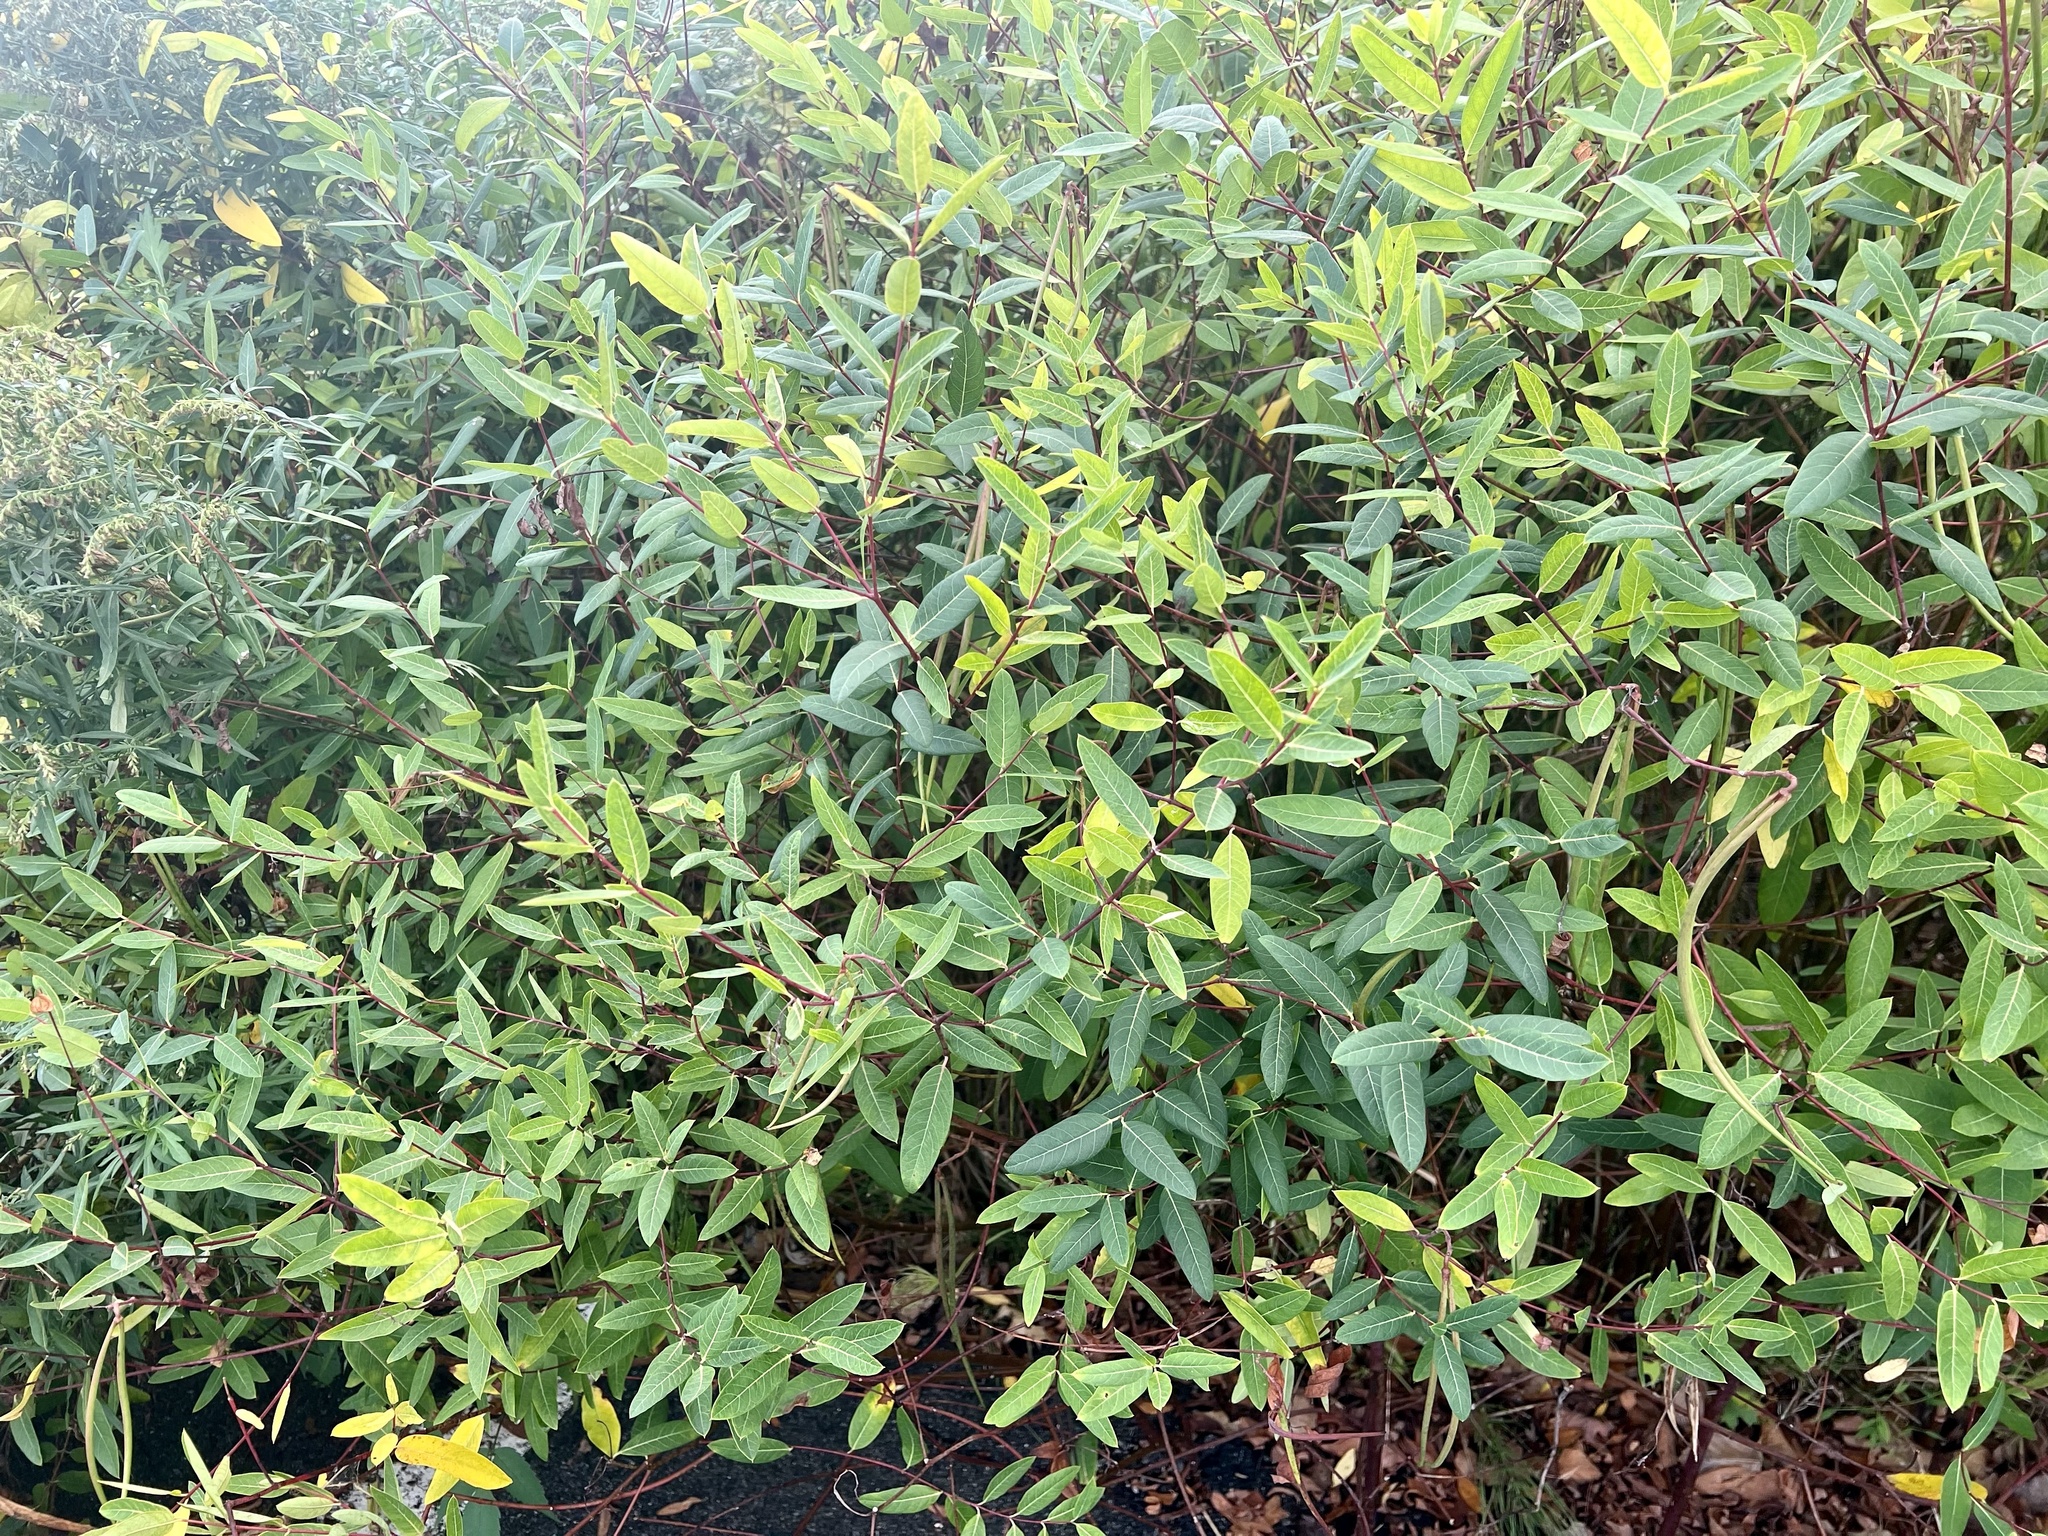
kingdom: Plantae
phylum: Tracheophyta
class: Magnoliopsida
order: Gentianales
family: Apocynaceae
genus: Apocynum
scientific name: Apocynum cannabinum
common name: Hemp dogbane
